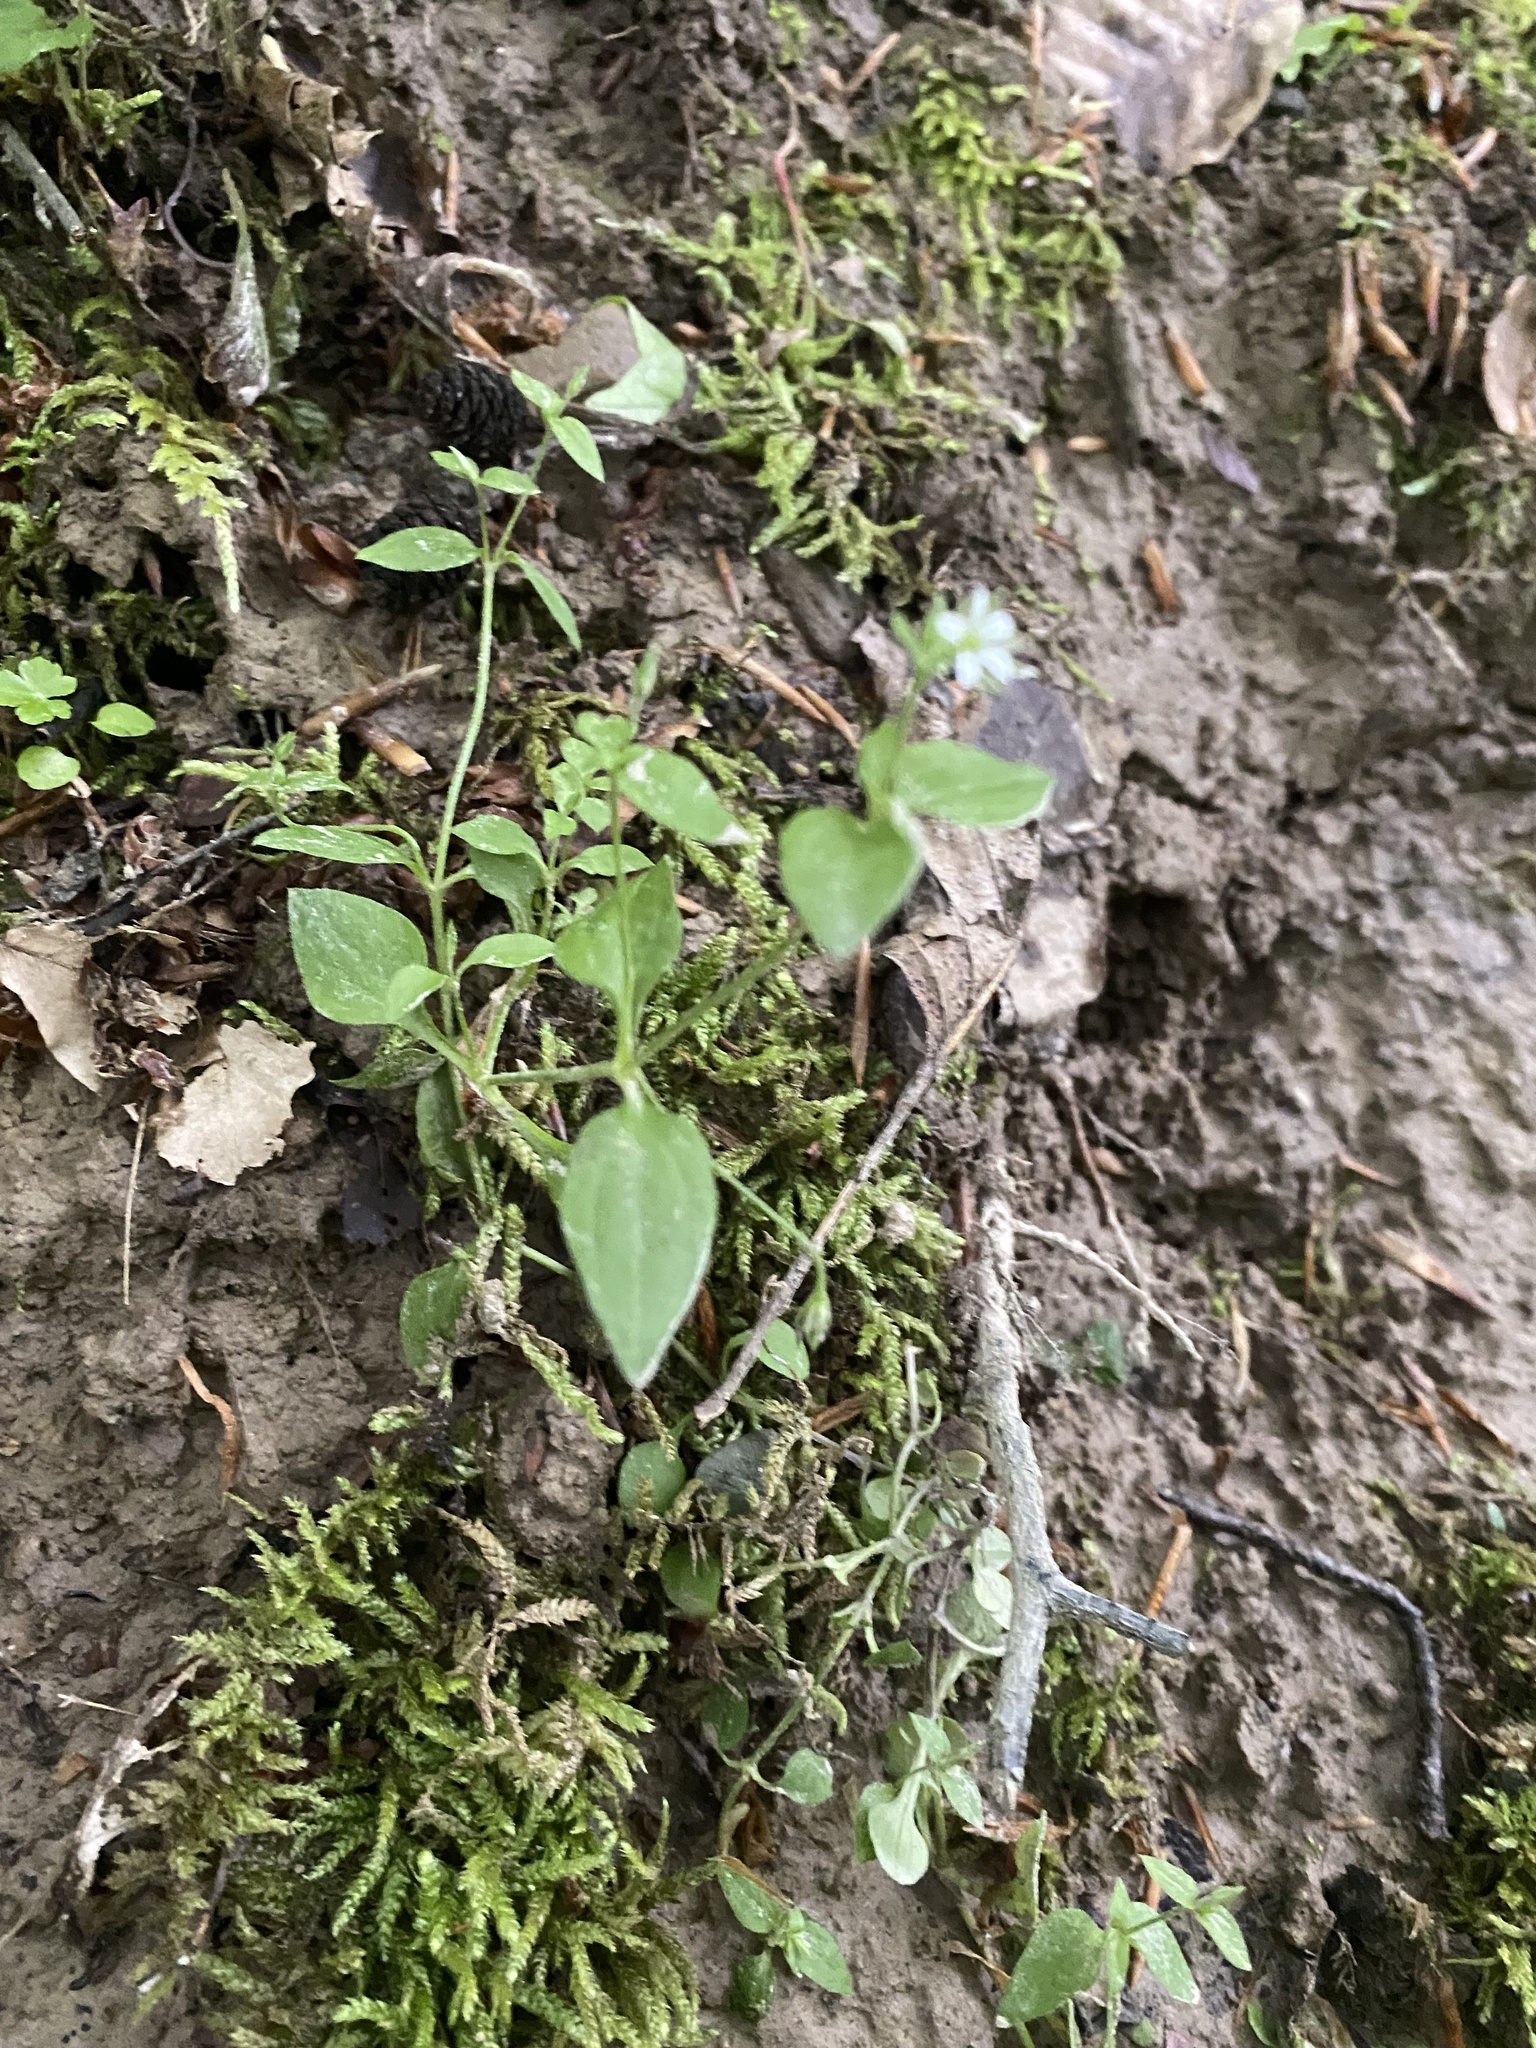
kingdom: Plantae
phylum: Tracheophyta
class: Magnoliopsida
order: Caryophyllales
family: Caryophyllaceae
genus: Moehringia
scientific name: Moehringia trinervia
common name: Three-nerved sandwort
